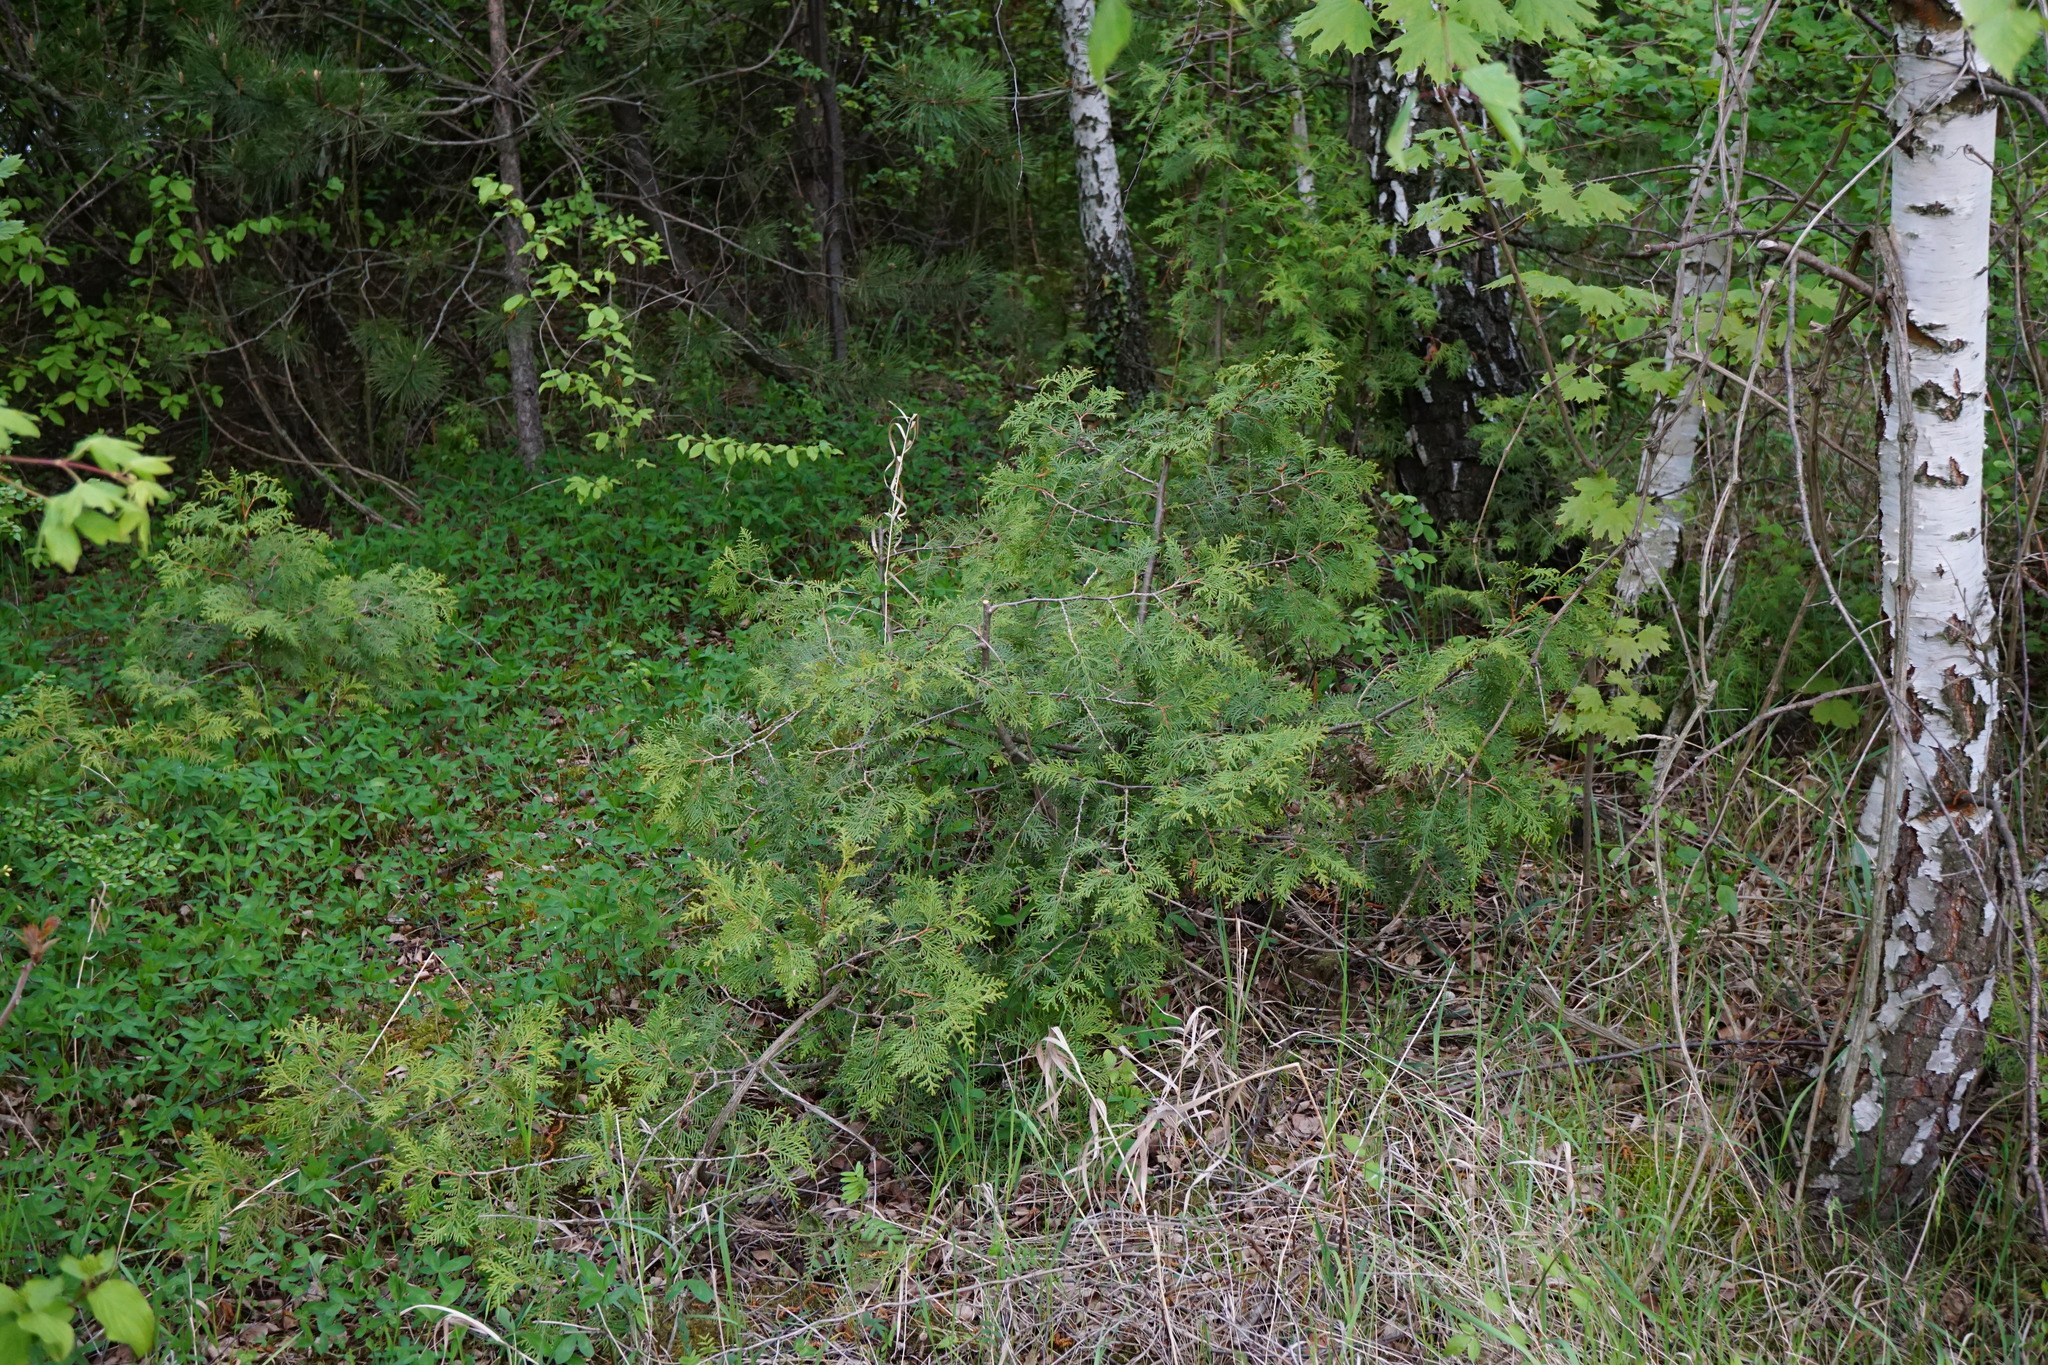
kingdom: Plantae
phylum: Tracheophyta
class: Pinopsida
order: Pinales
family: Cupressaceae
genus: Thuja
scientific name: Thuja occidentalis
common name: Northern white-cedar
